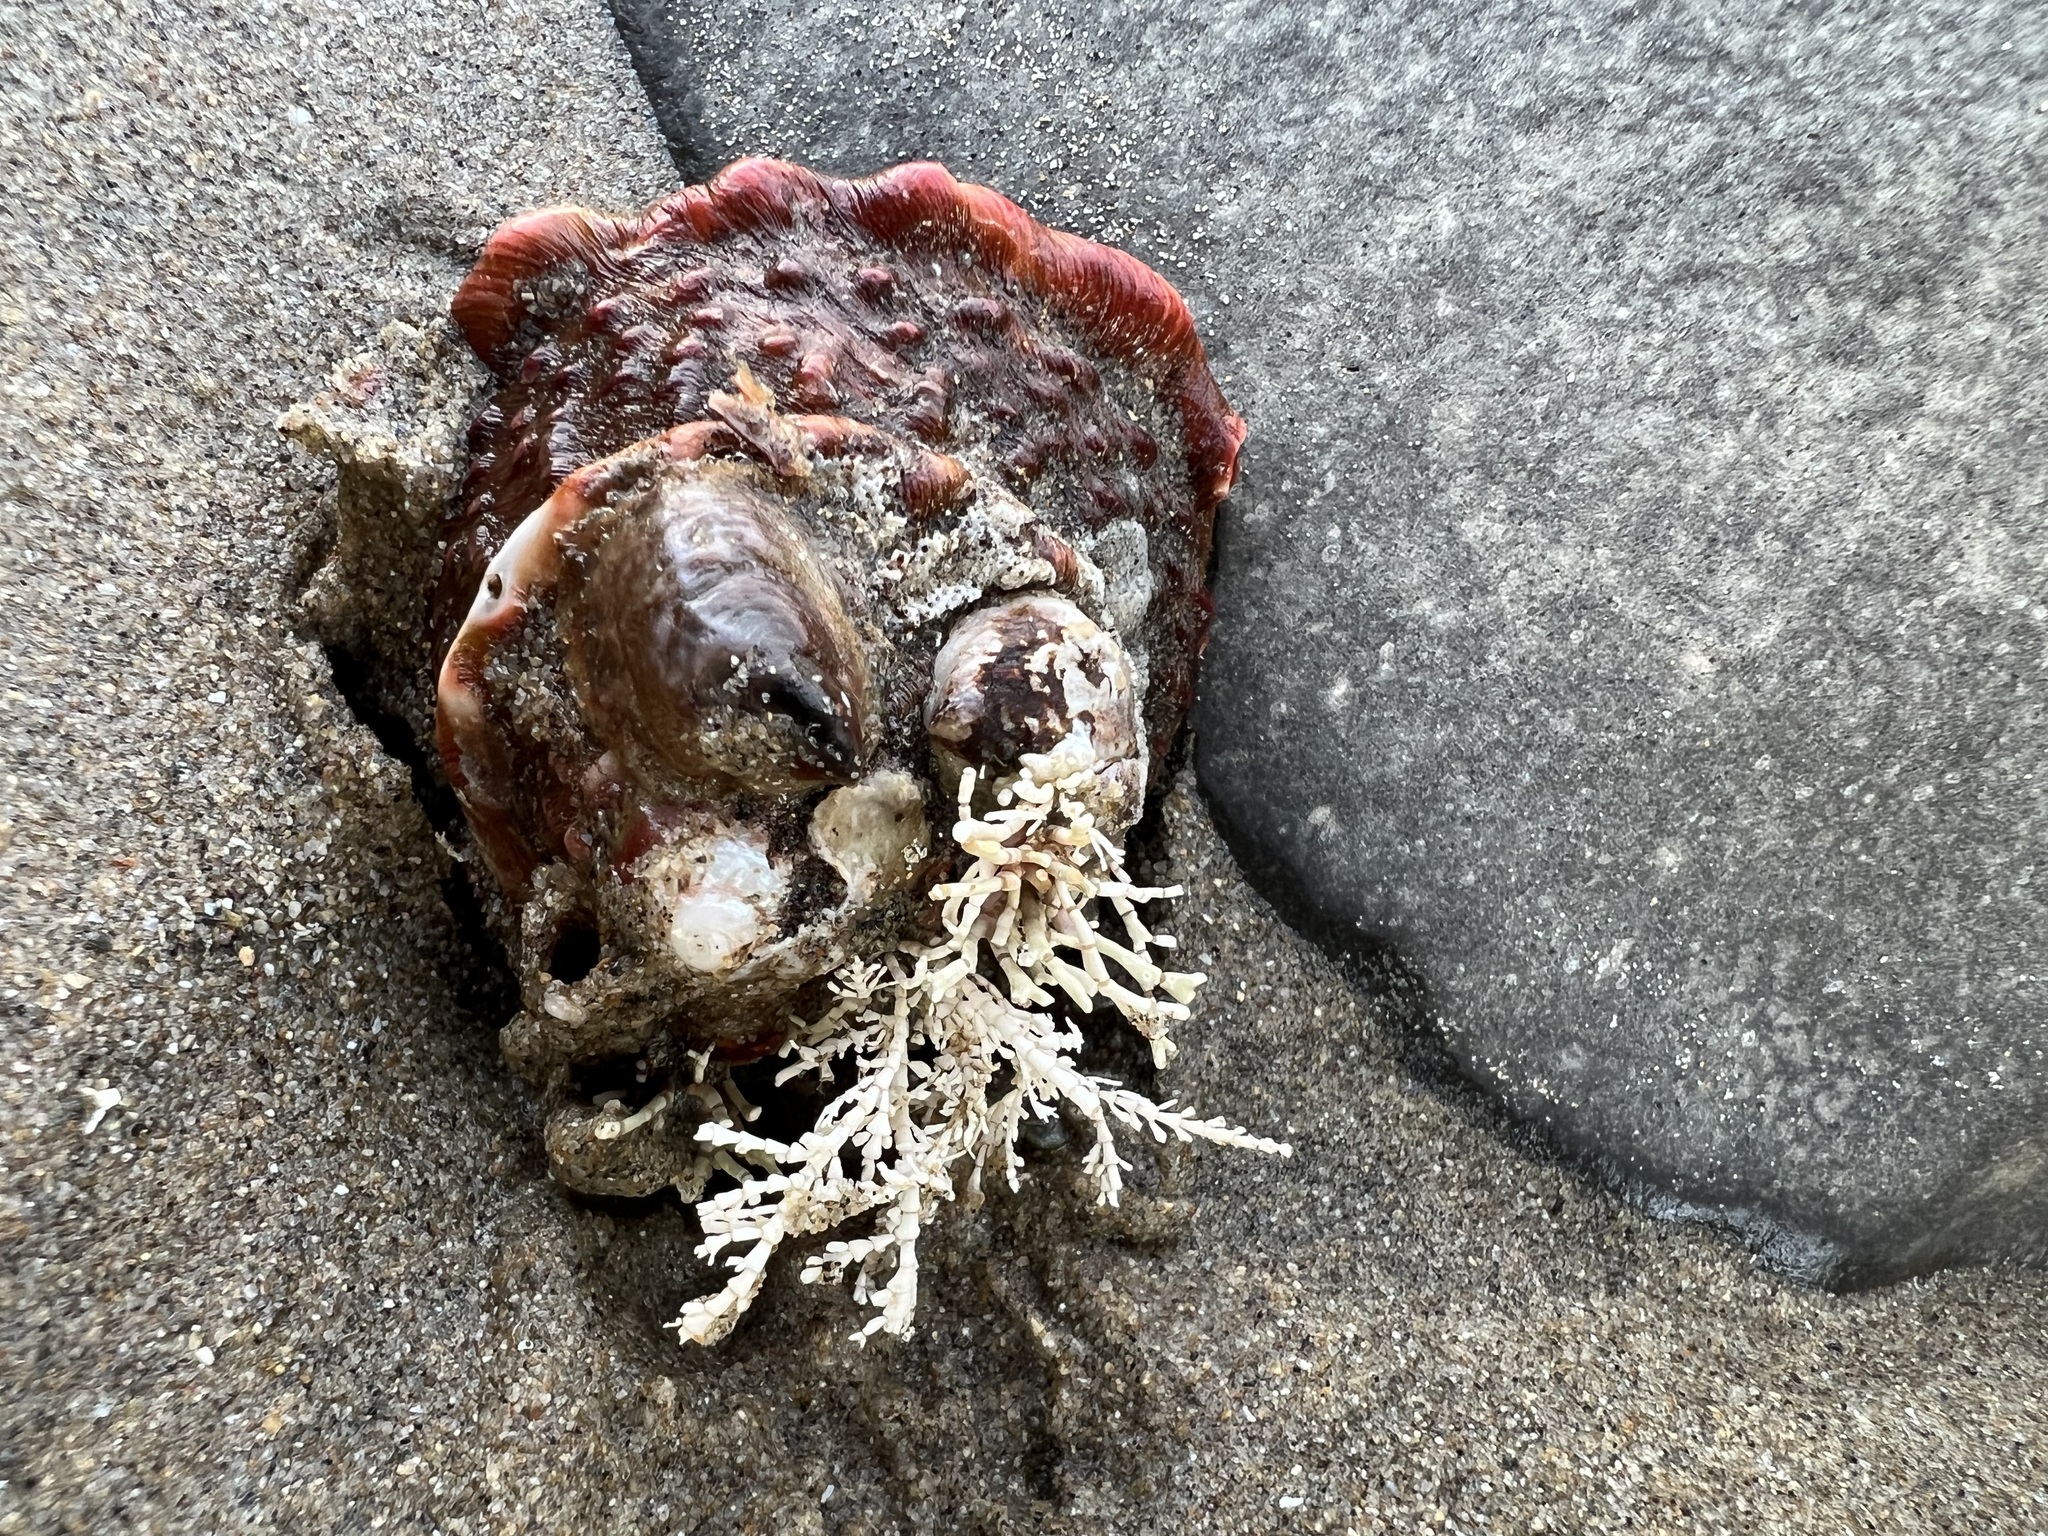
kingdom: Animalia
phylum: Mollusca
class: Gastropoda
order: Trochida
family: Turbinidae
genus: Megastraea
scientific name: Megastraea undosa
